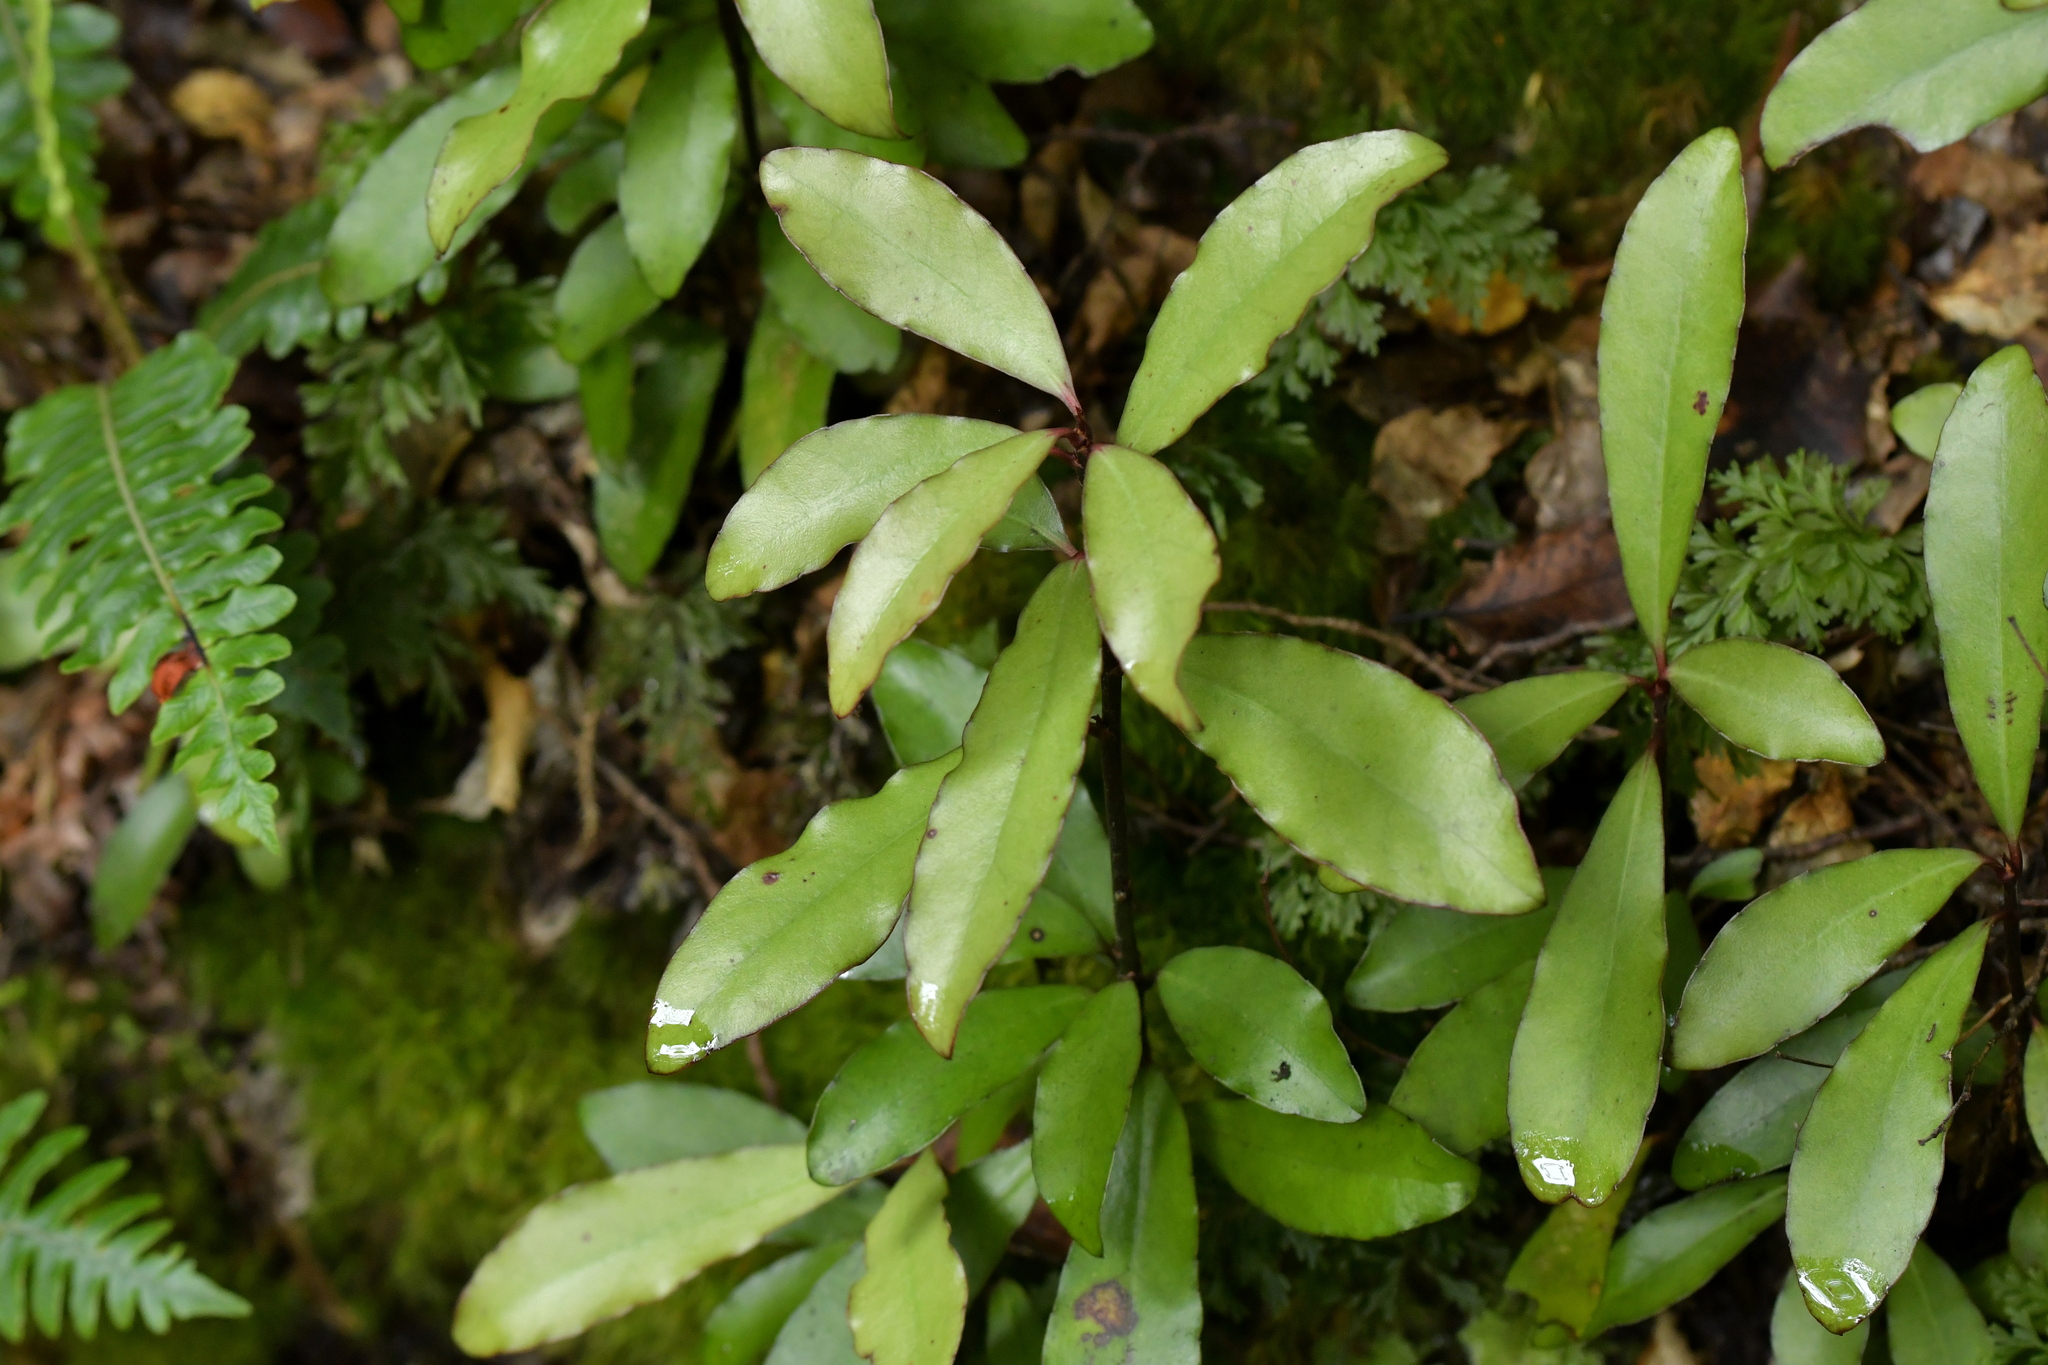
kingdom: Plantae
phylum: Tracheophyta
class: Magnoliopsida
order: Canellales
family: Winteraceae
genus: Pseudowintera
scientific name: Pseudowintera colorata
